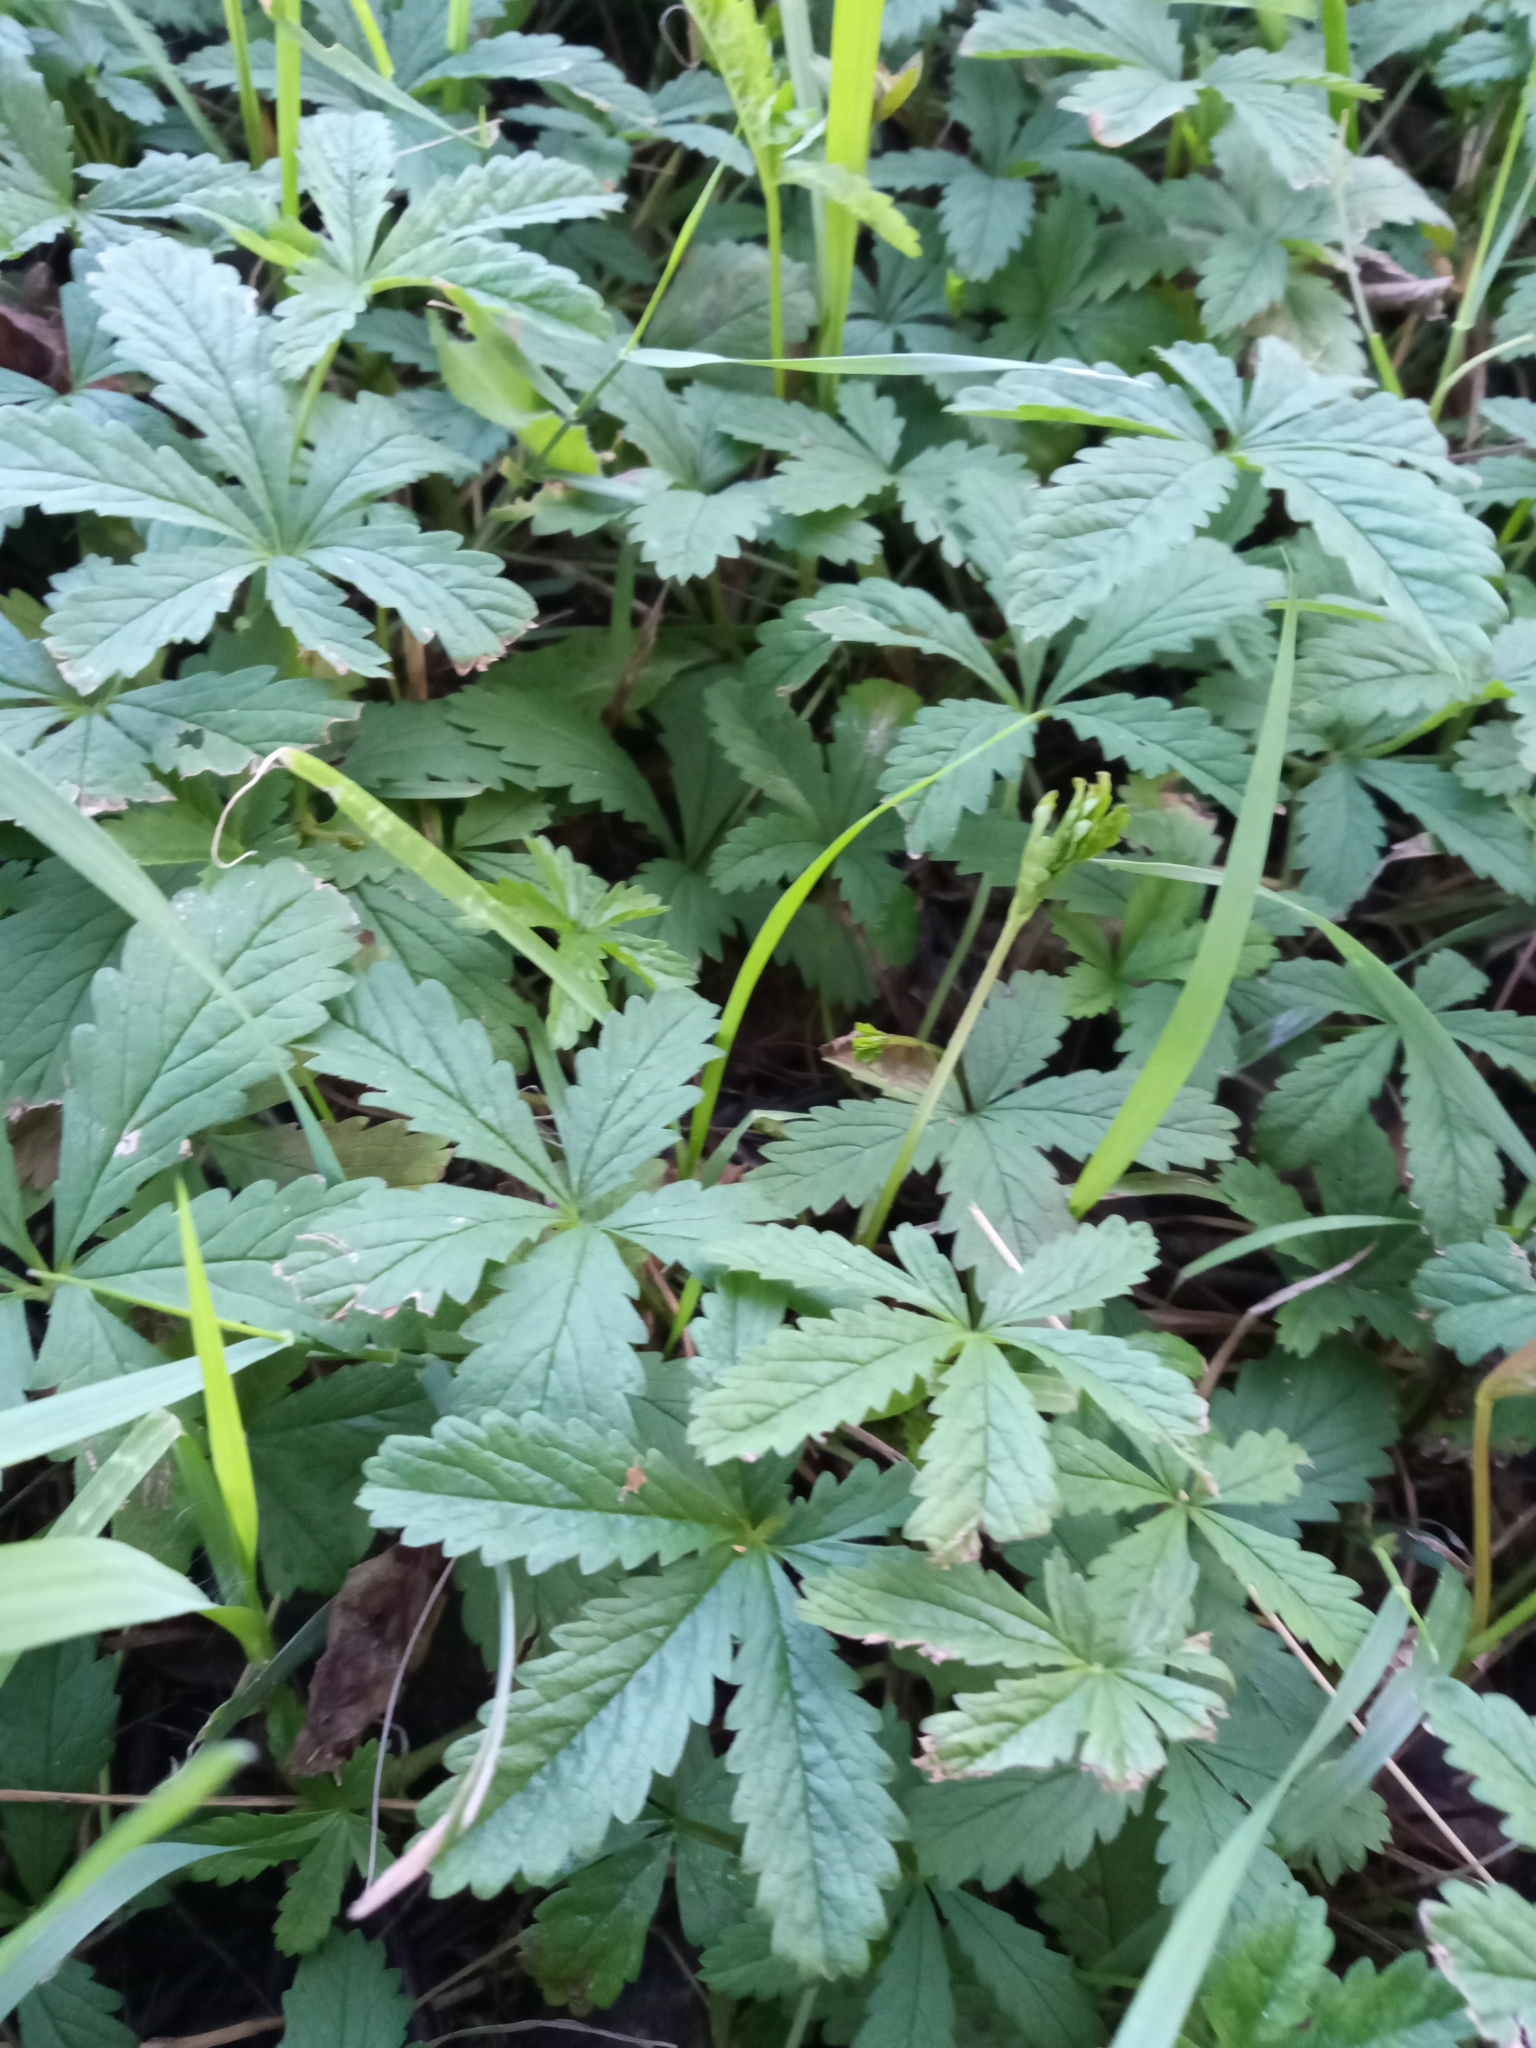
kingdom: Plantae
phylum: Tracheophyta
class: Magnoliopsida
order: Rosales
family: Rosaceae
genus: Potentilla
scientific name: Potentilla reptans
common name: Creeping cinquefoil
